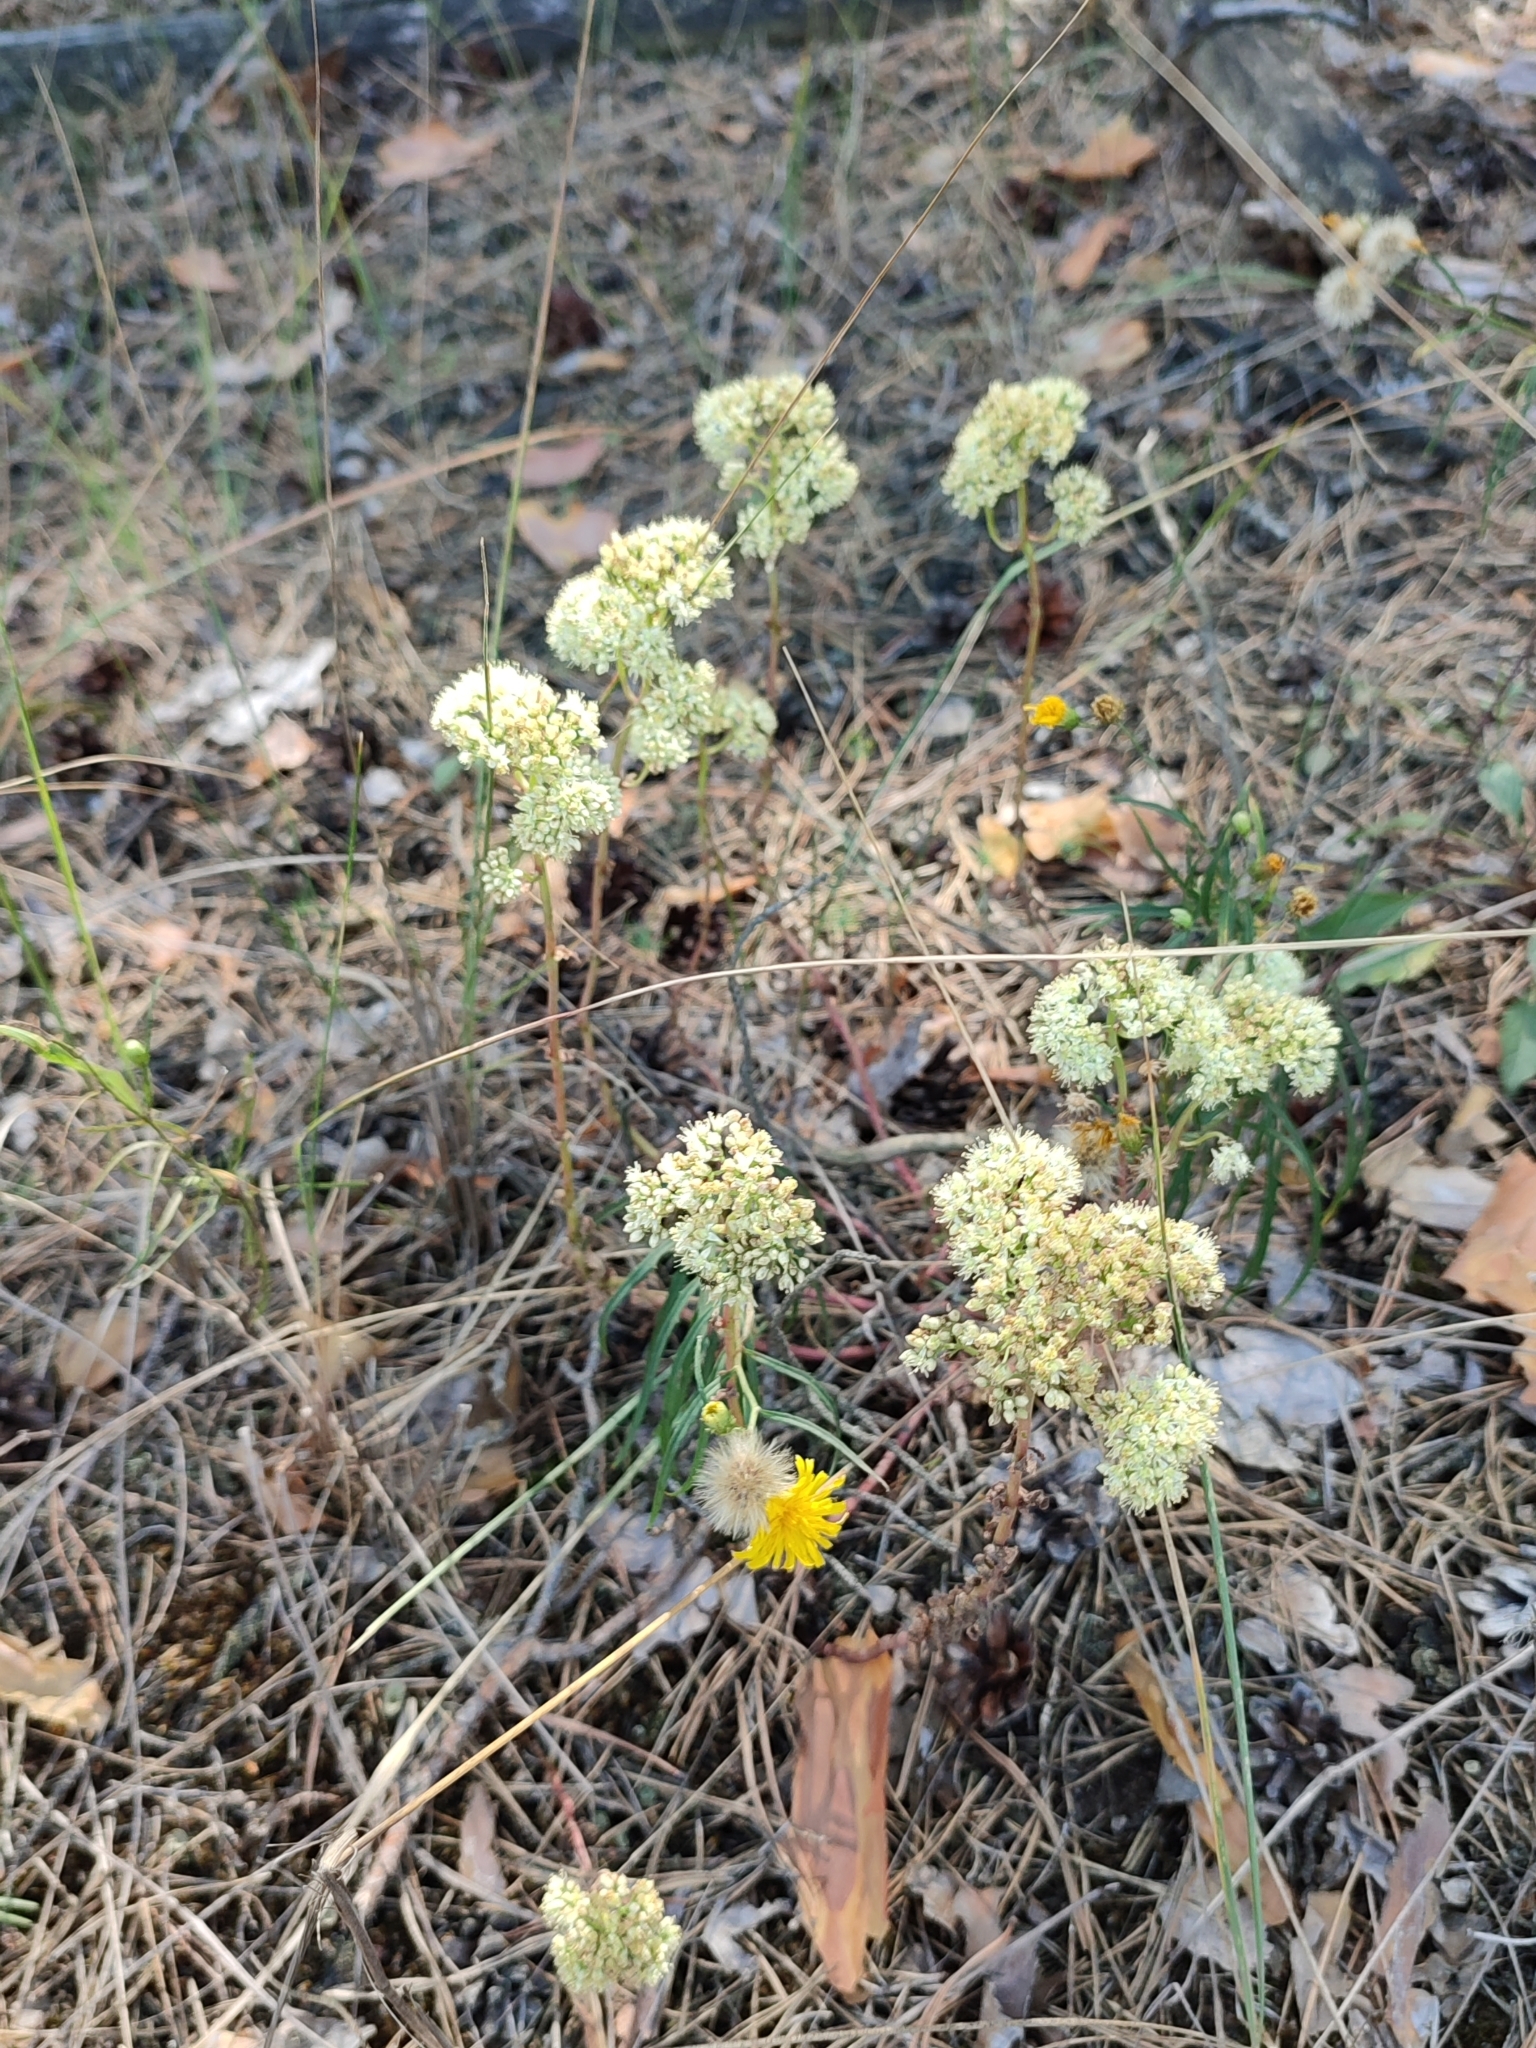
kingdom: Plantae
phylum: Tracheophyta
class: Magnoliopsida
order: Saxifragales
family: Crassulaceae
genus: Hylotelephium
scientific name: Hylotelephium maximum
